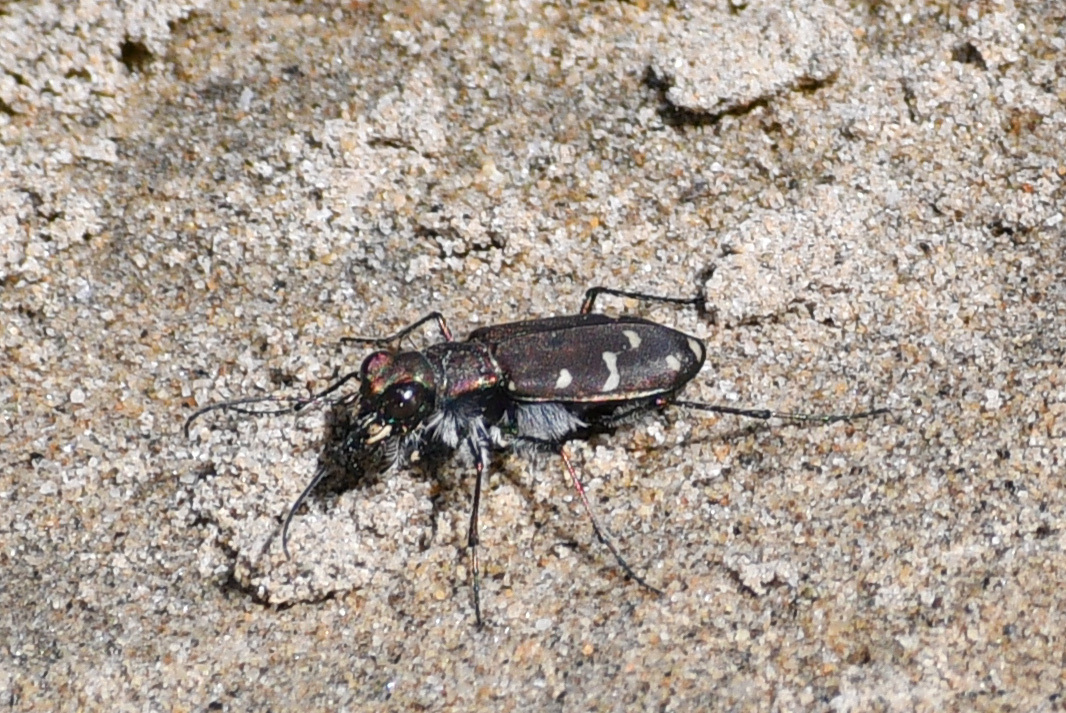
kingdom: Animalia
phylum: Arthropoda
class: Insecta
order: Coleoptera
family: Carabidae
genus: Cicindela
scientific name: Cicindela oregona
